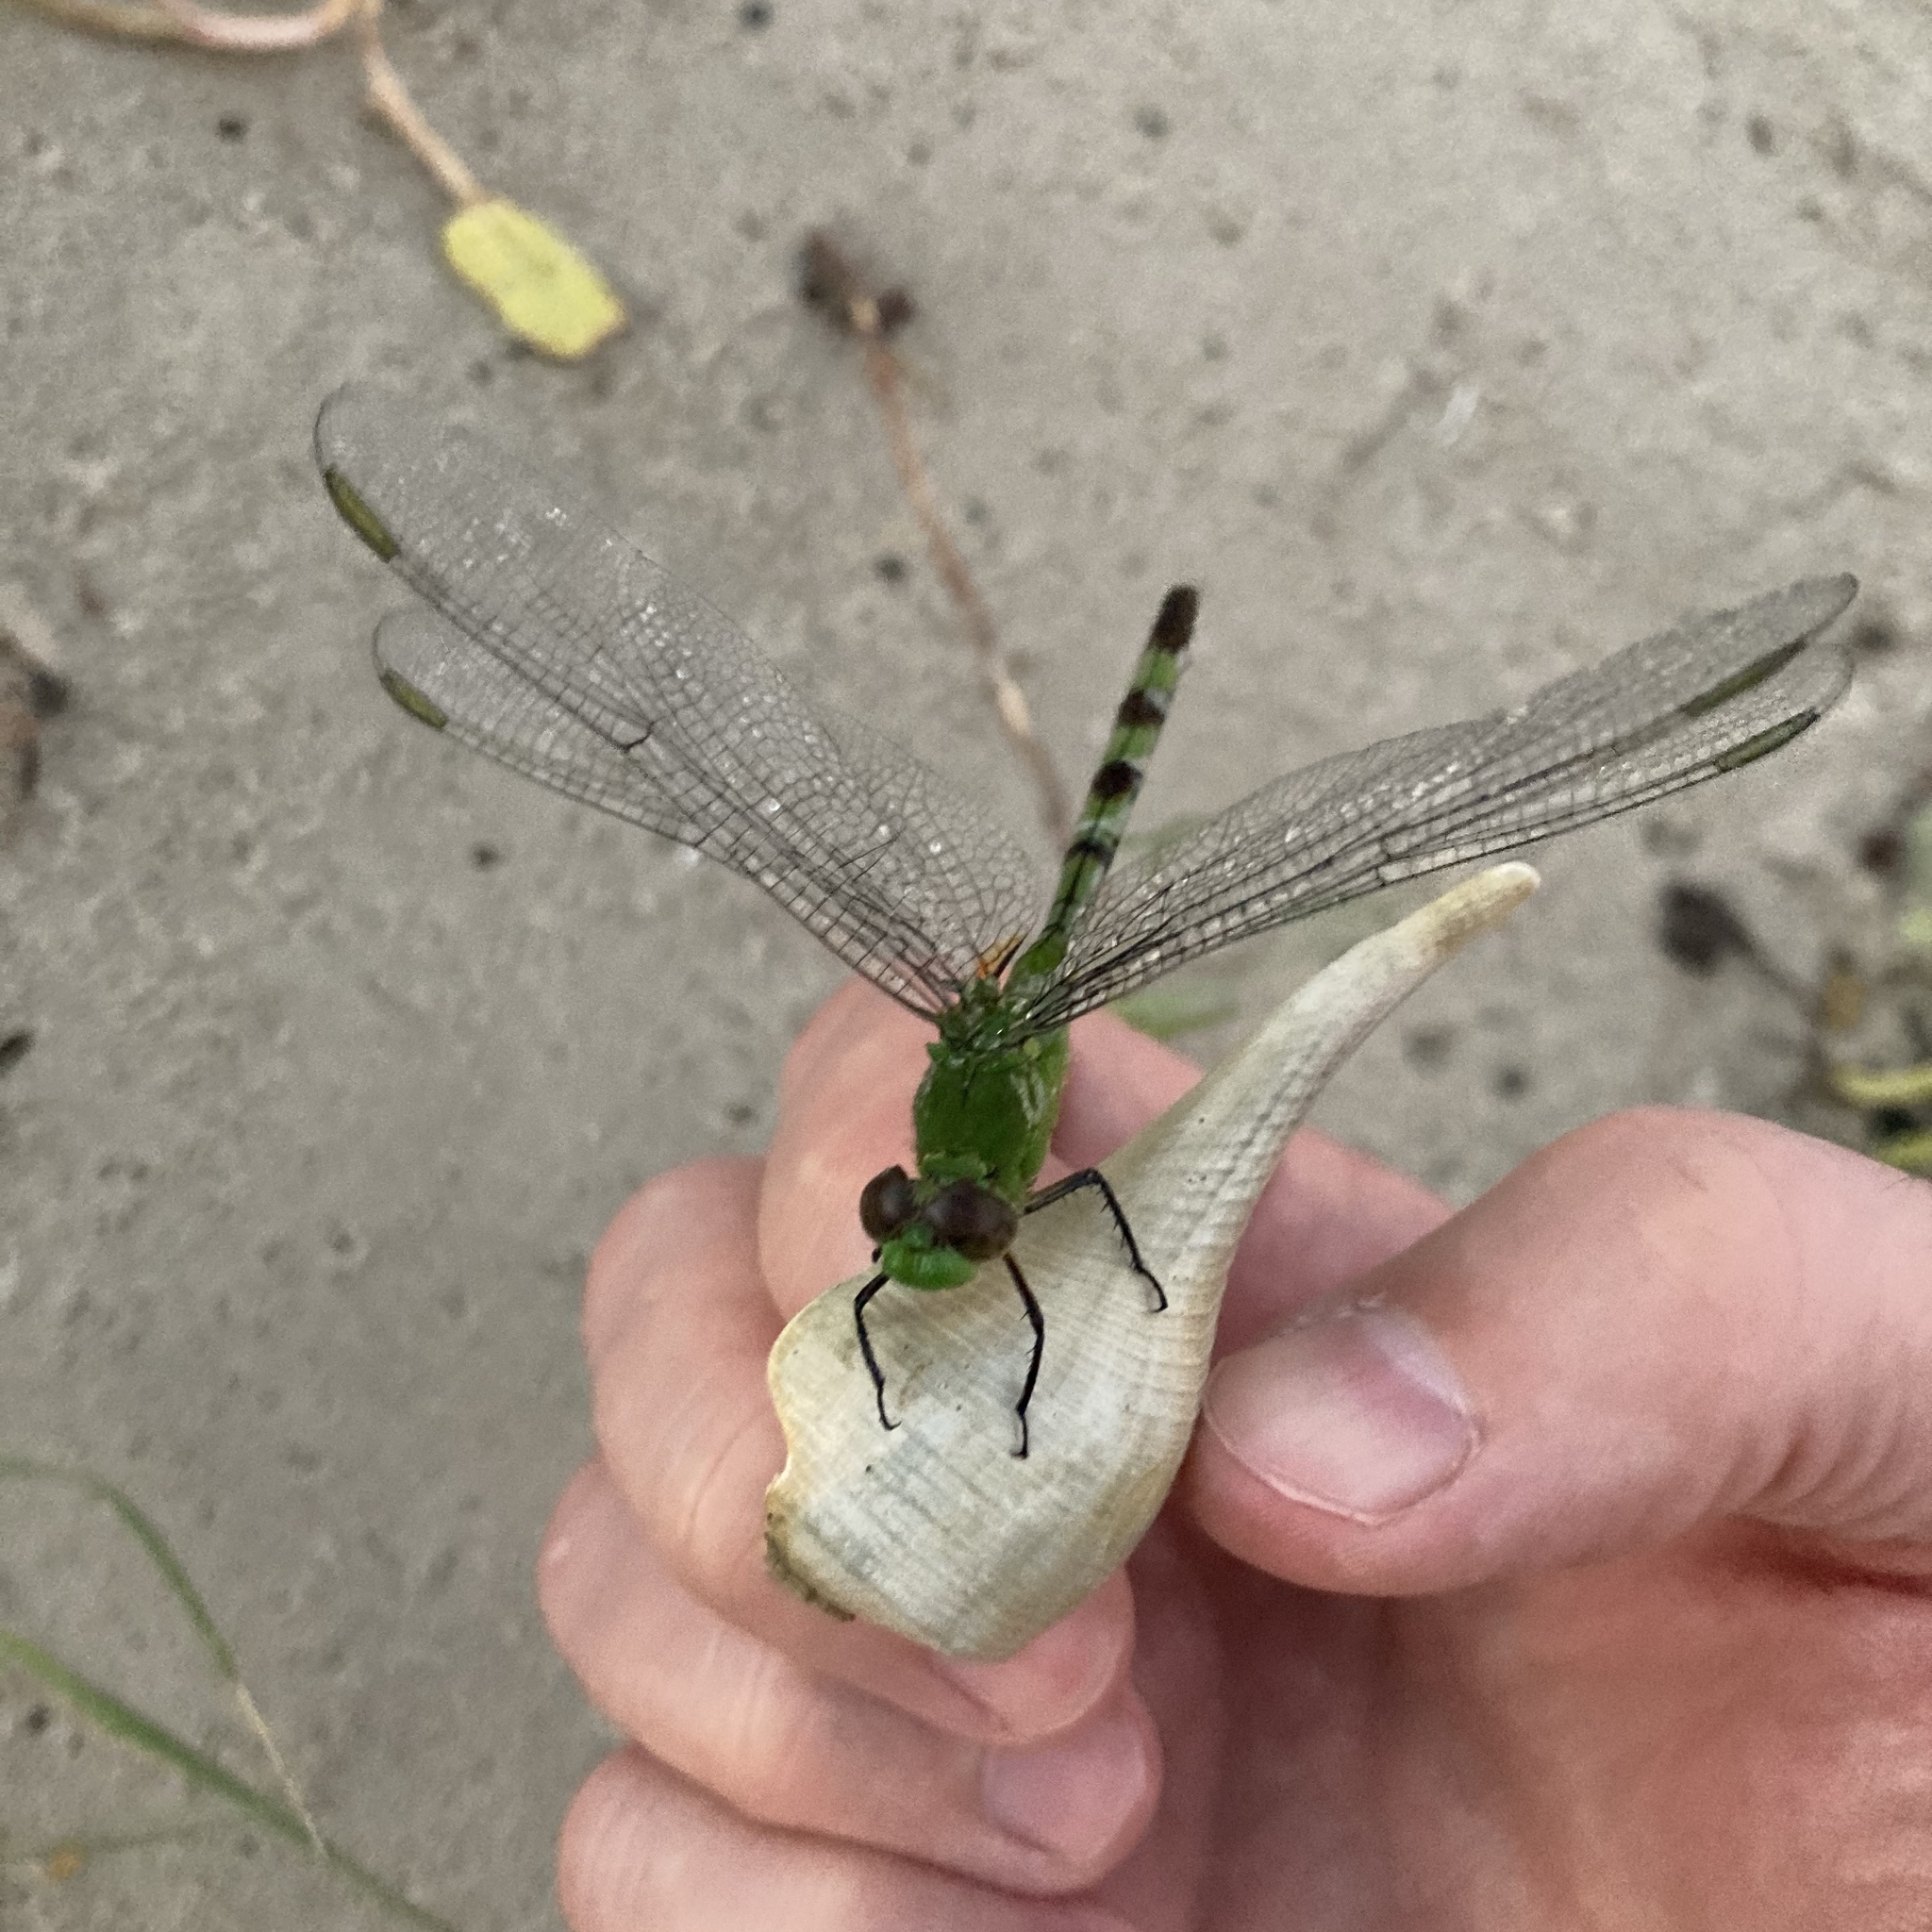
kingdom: Animalia
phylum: Arthropoda
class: Insecta
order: Odonata
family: Libellulidae
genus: Erythemis
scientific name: Erythemis vesiculosa
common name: Great pondhawk
